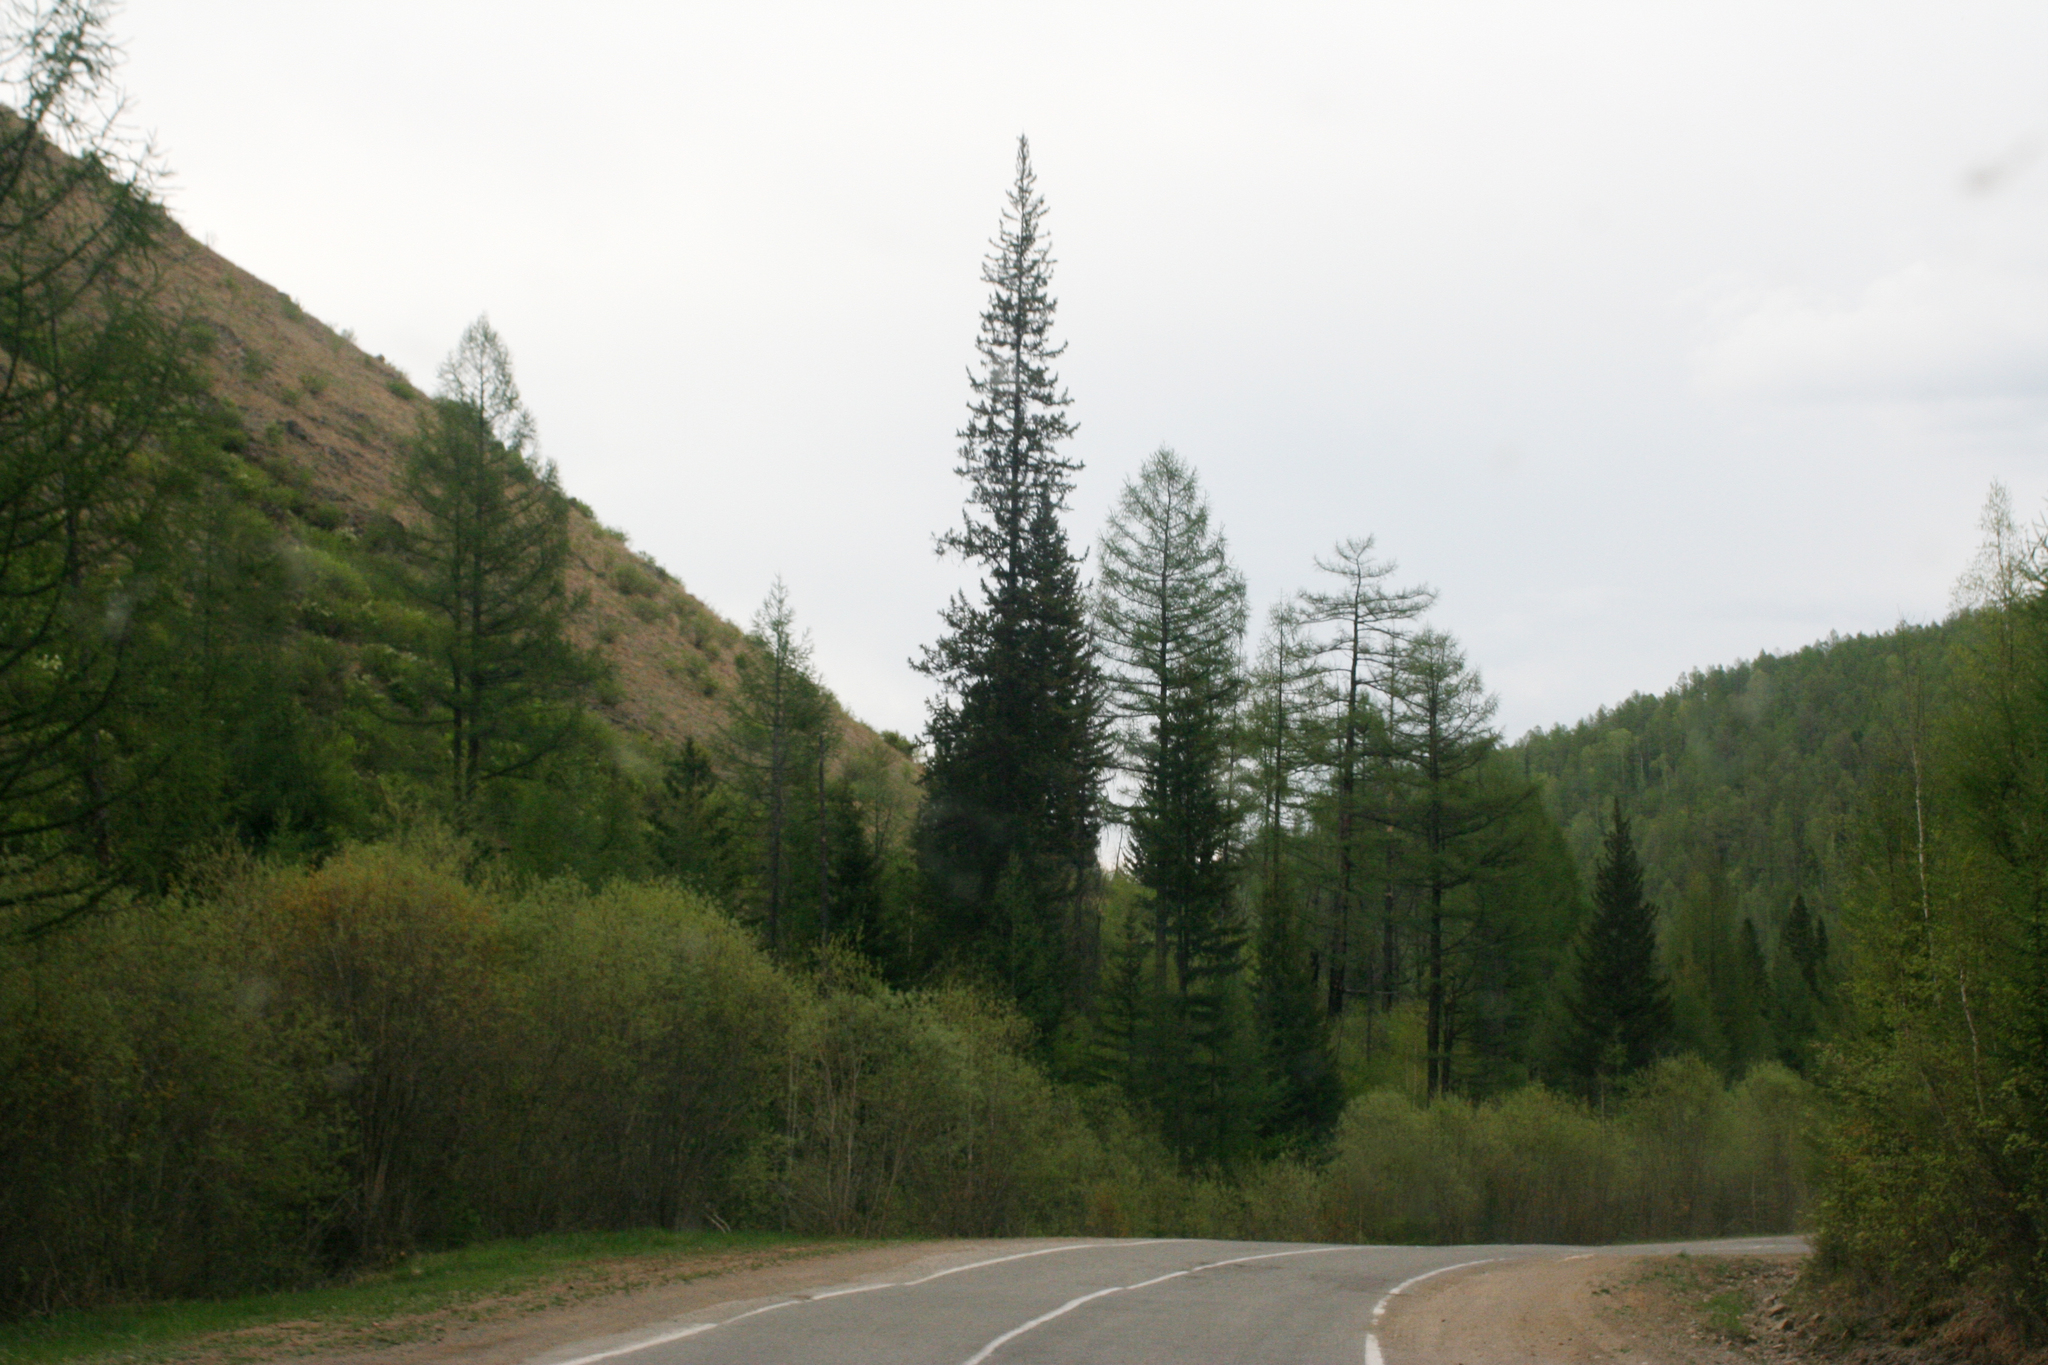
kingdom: Plantae
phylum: Tracheophyta
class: Pinopsida
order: Pinales
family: Pinaceae
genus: Larix
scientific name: Larix sibirica
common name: Siberian larch
